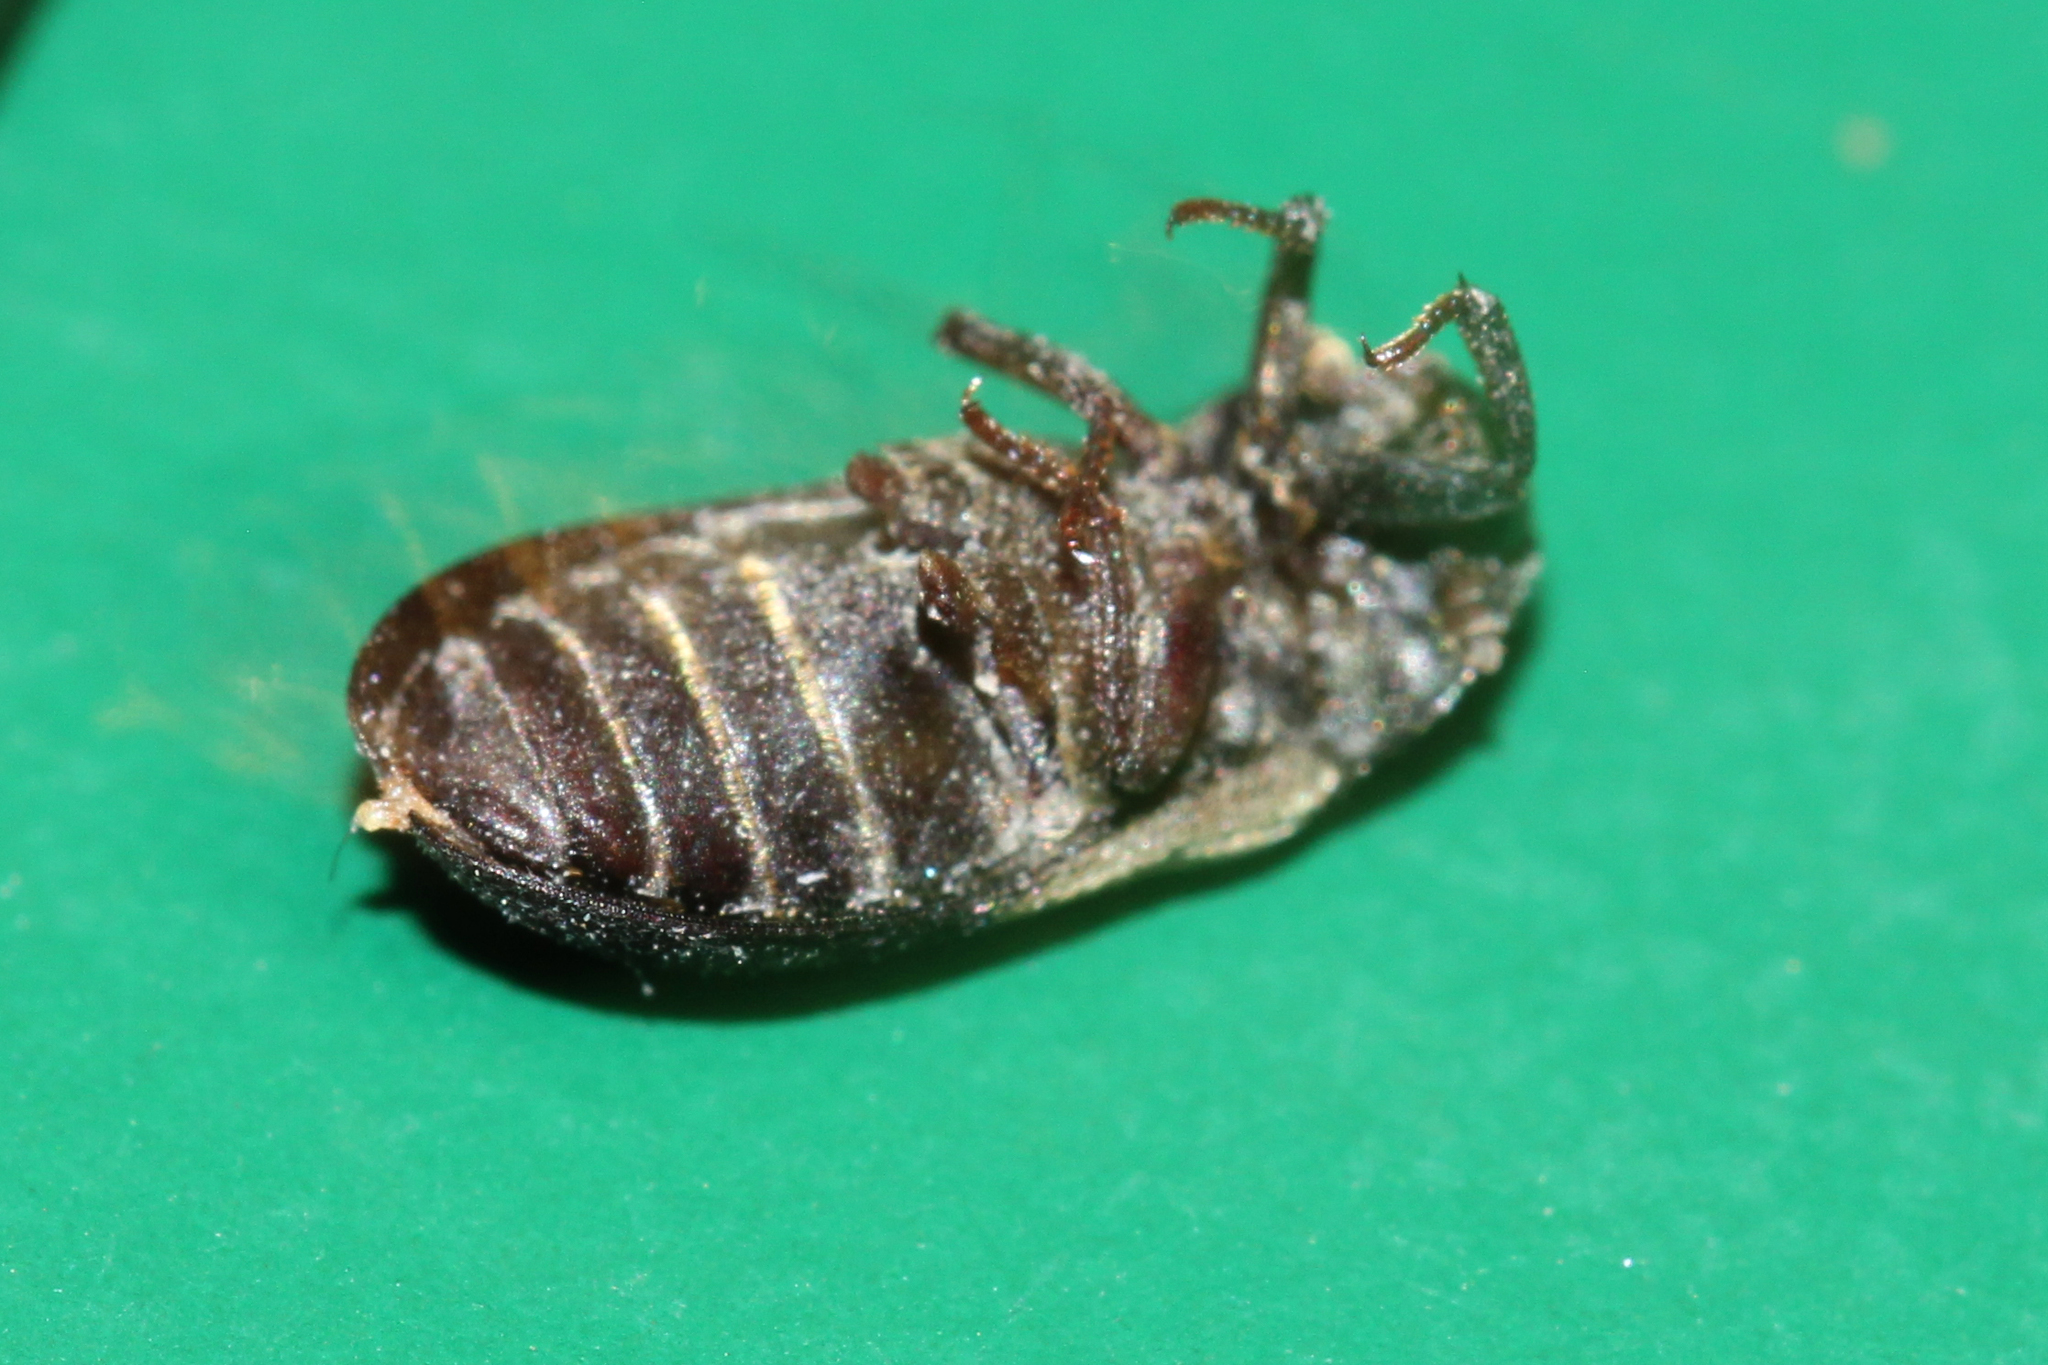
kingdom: Animalia
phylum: Arthropoda
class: Insecta
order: Coleoptera
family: Dermestidae
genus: Dermestes
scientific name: Dermestes lardarius
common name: Larder beetle
